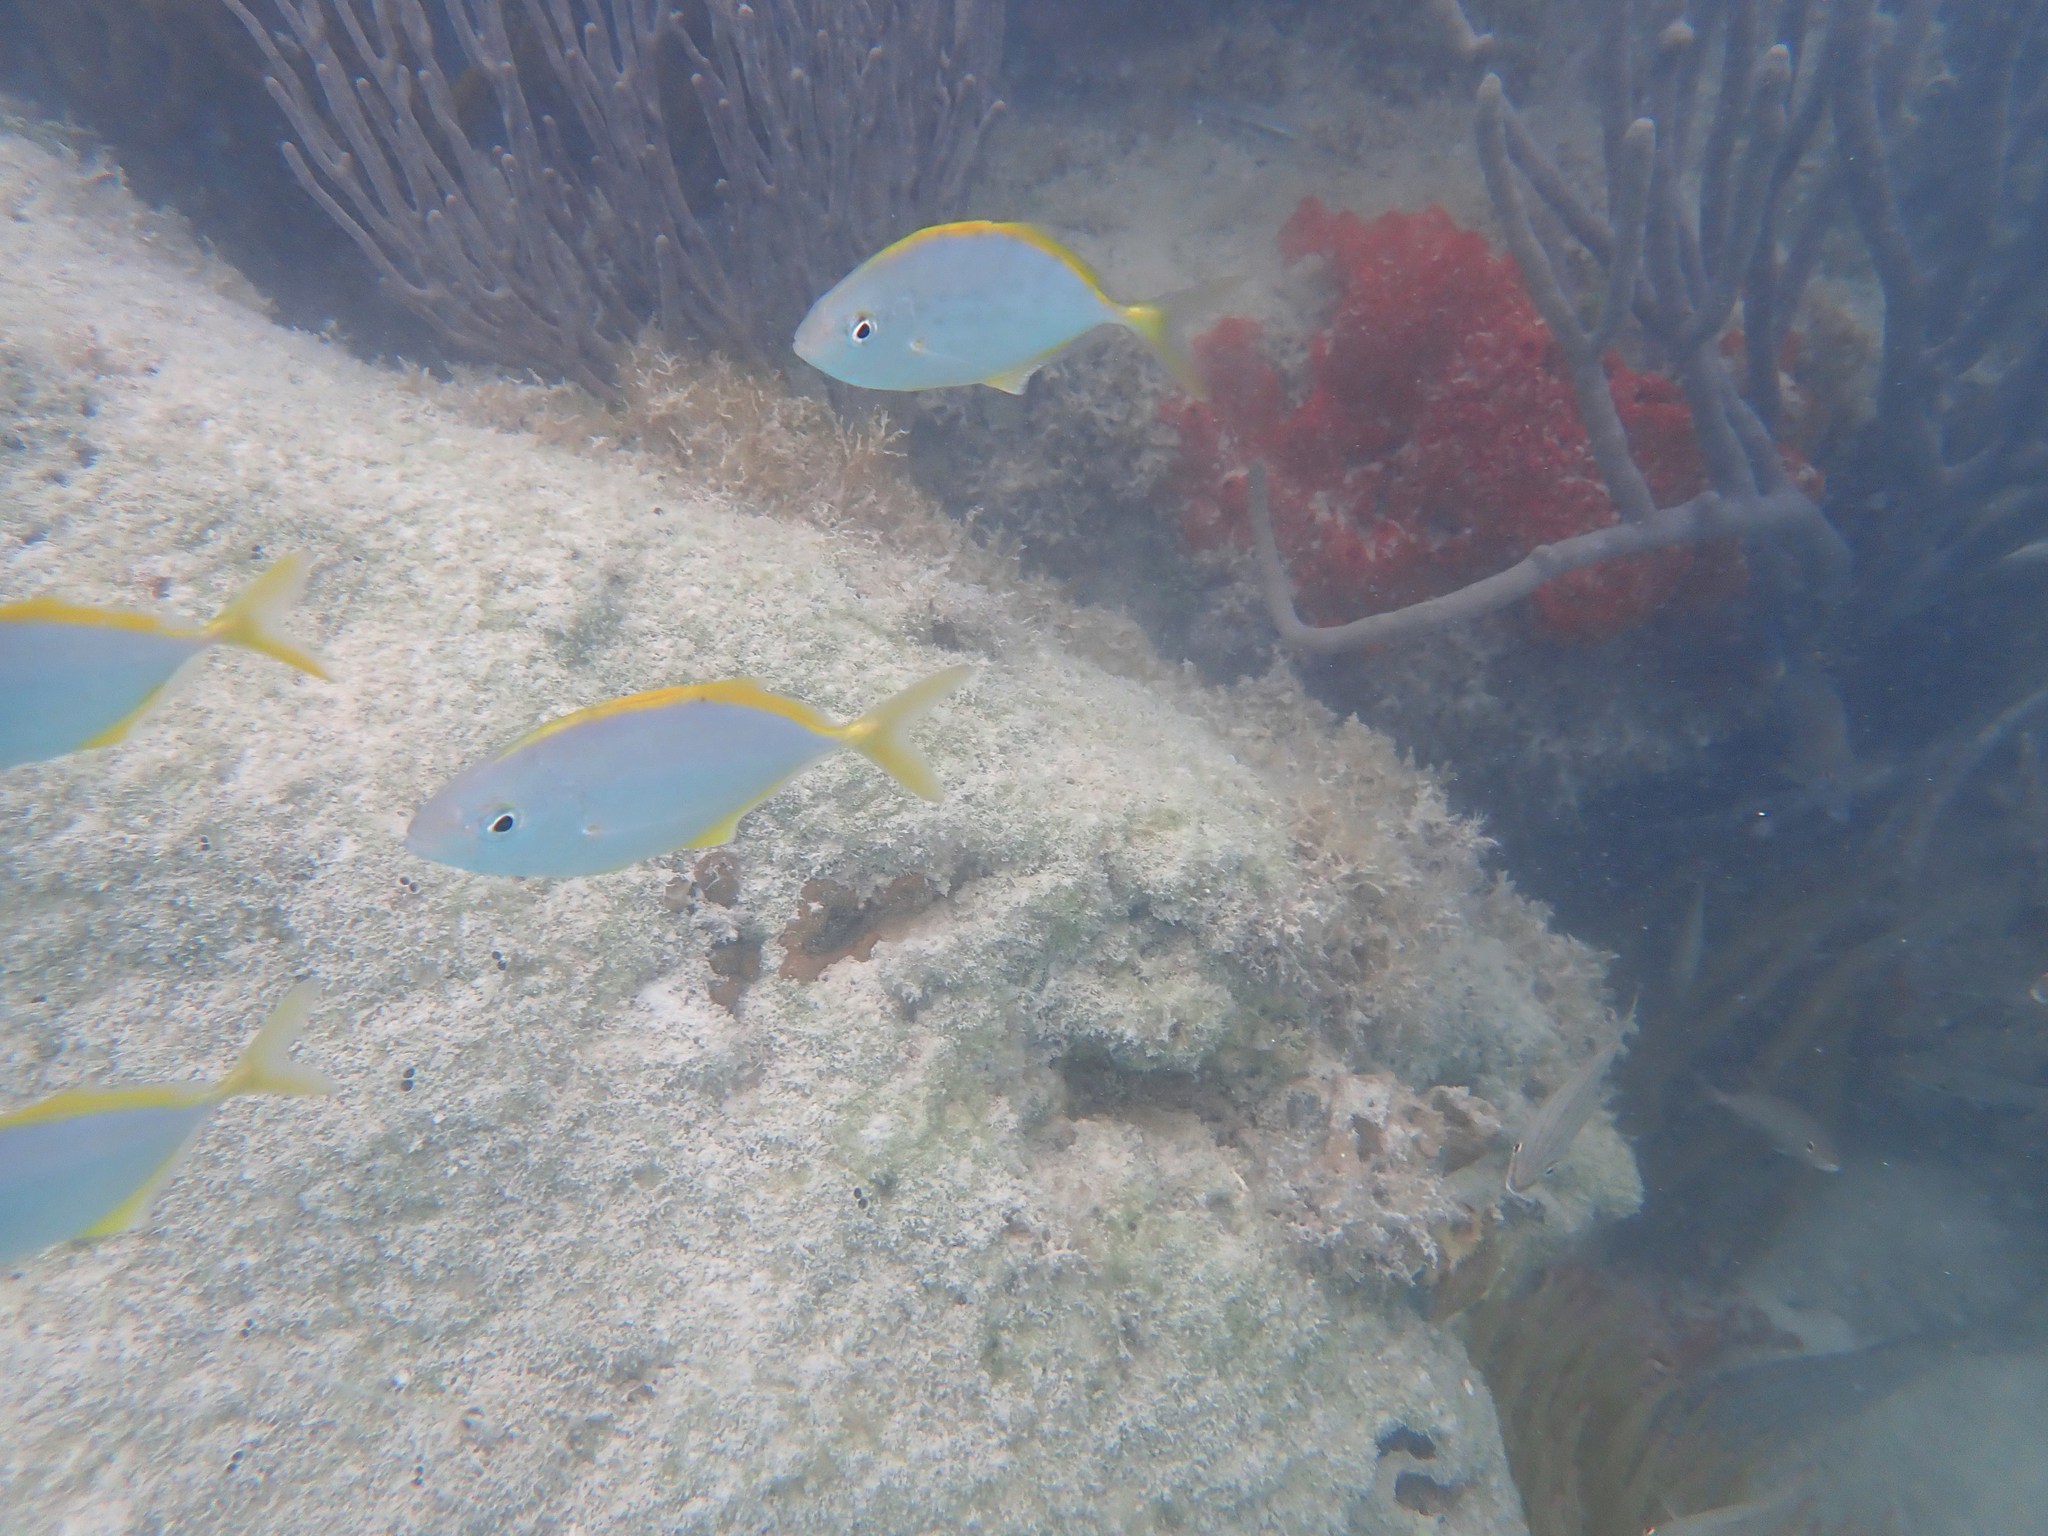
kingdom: Animalia
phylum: Chordata
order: Perciformes
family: Carangidae
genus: Carangoides
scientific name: Carangoides bartholomaei
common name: Yellow jack
